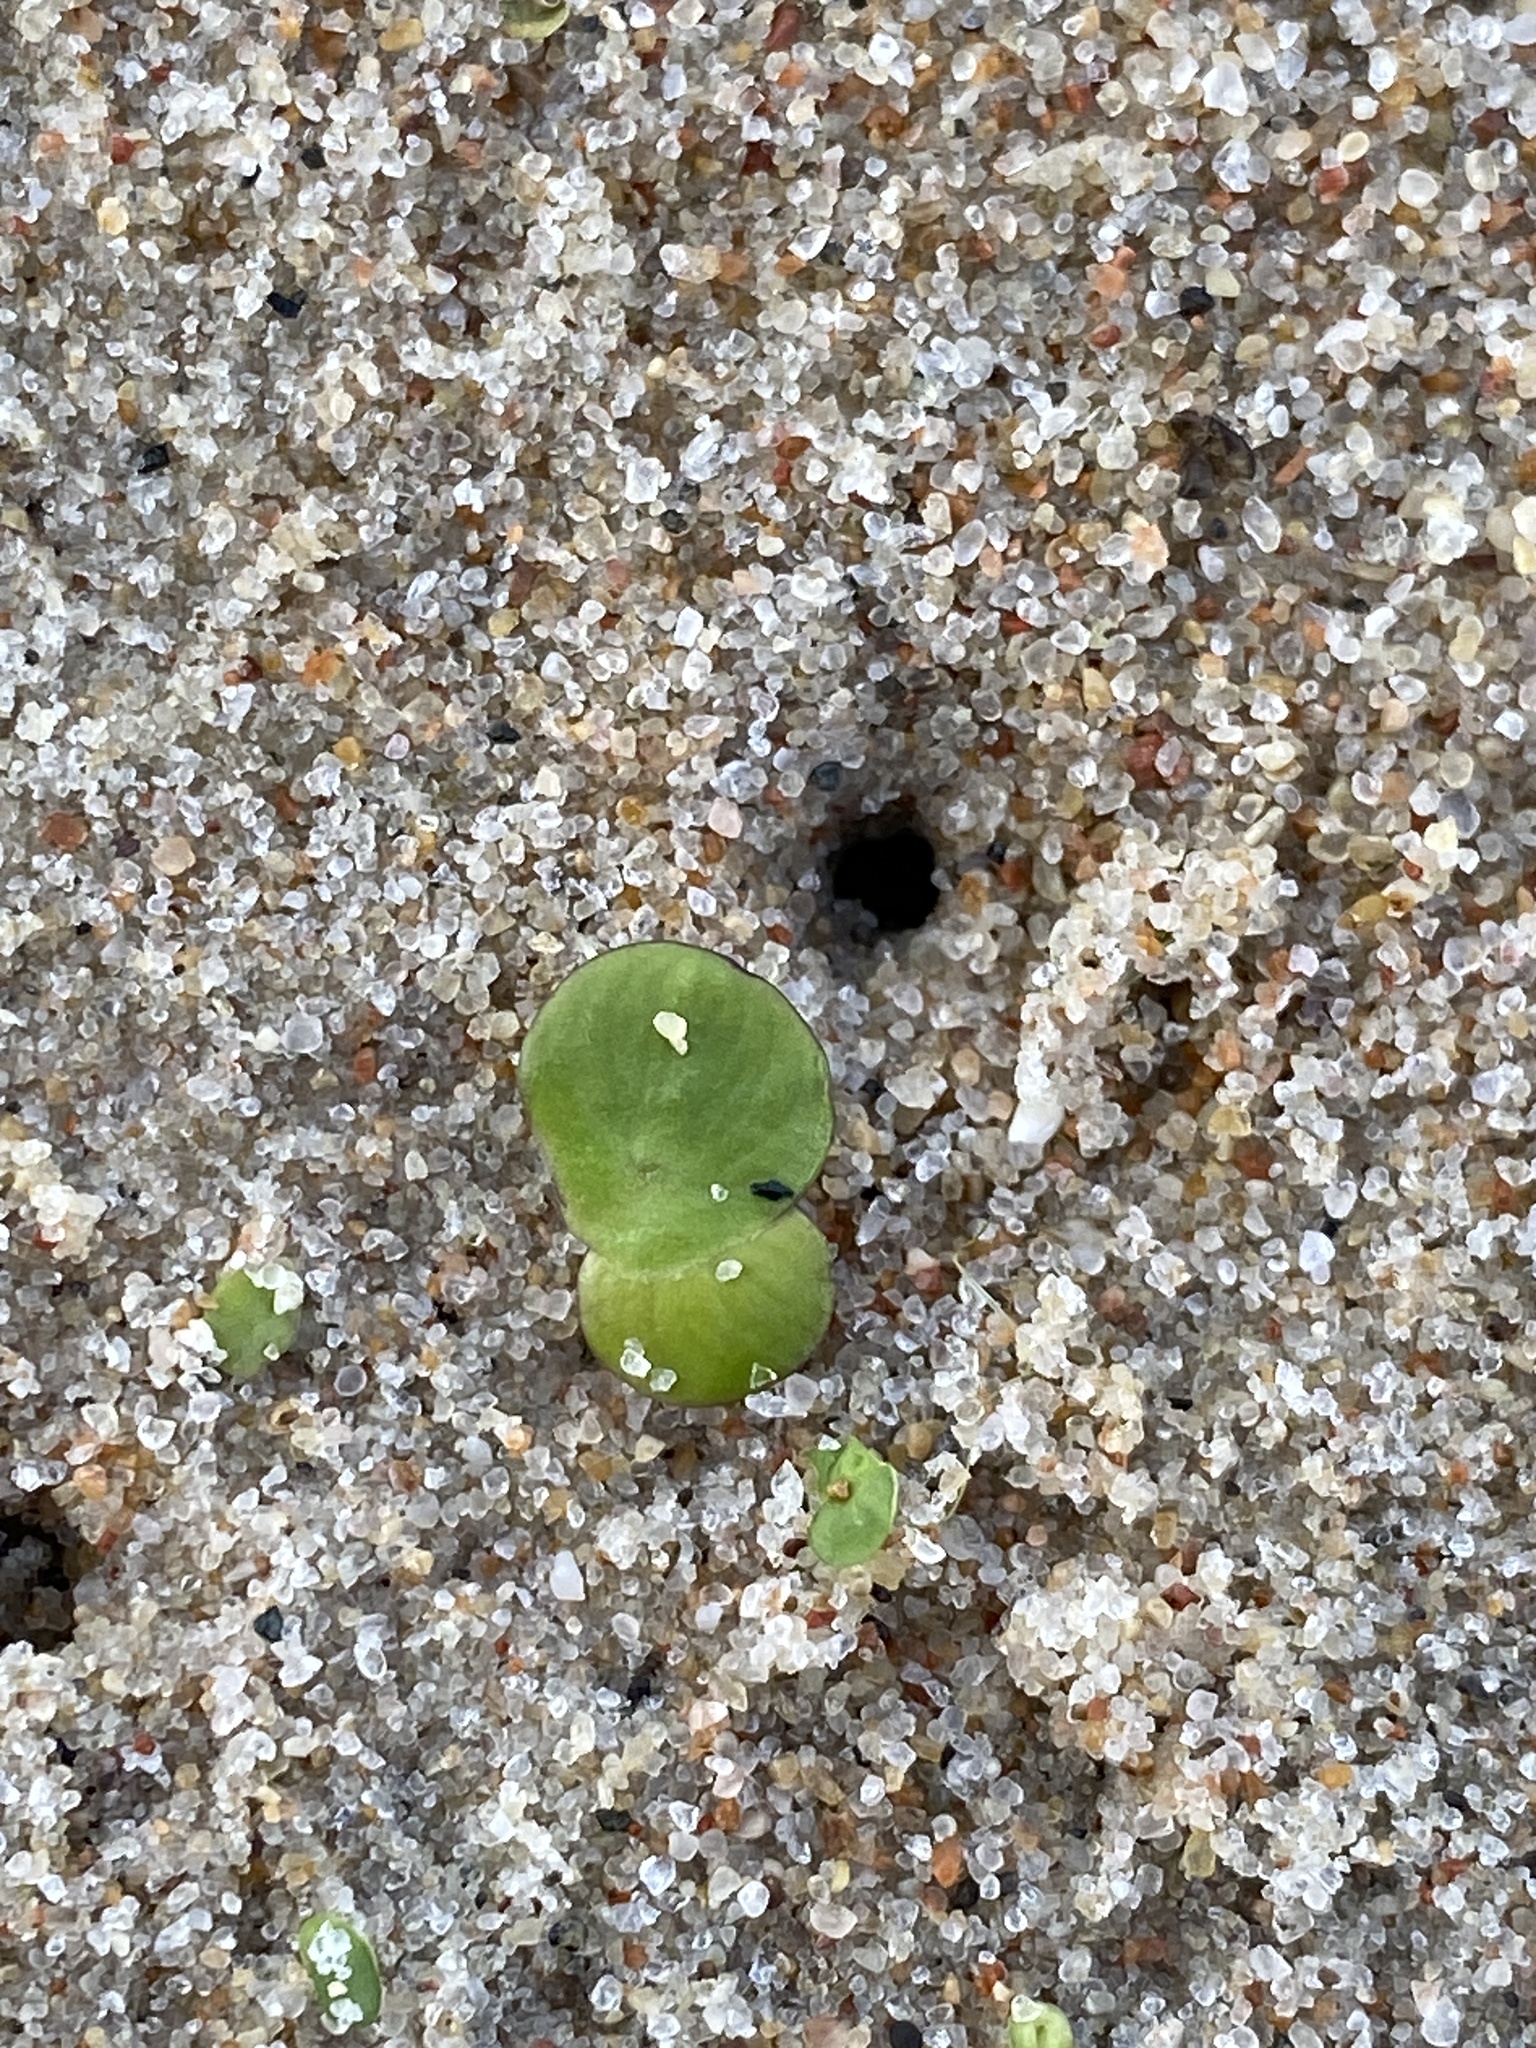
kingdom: Plantae
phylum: Tracheophyta
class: Liliopsida
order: Alismatales
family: Araceae
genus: Spirodela
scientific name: Spirodela polyrhiza
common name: Great duckweed
